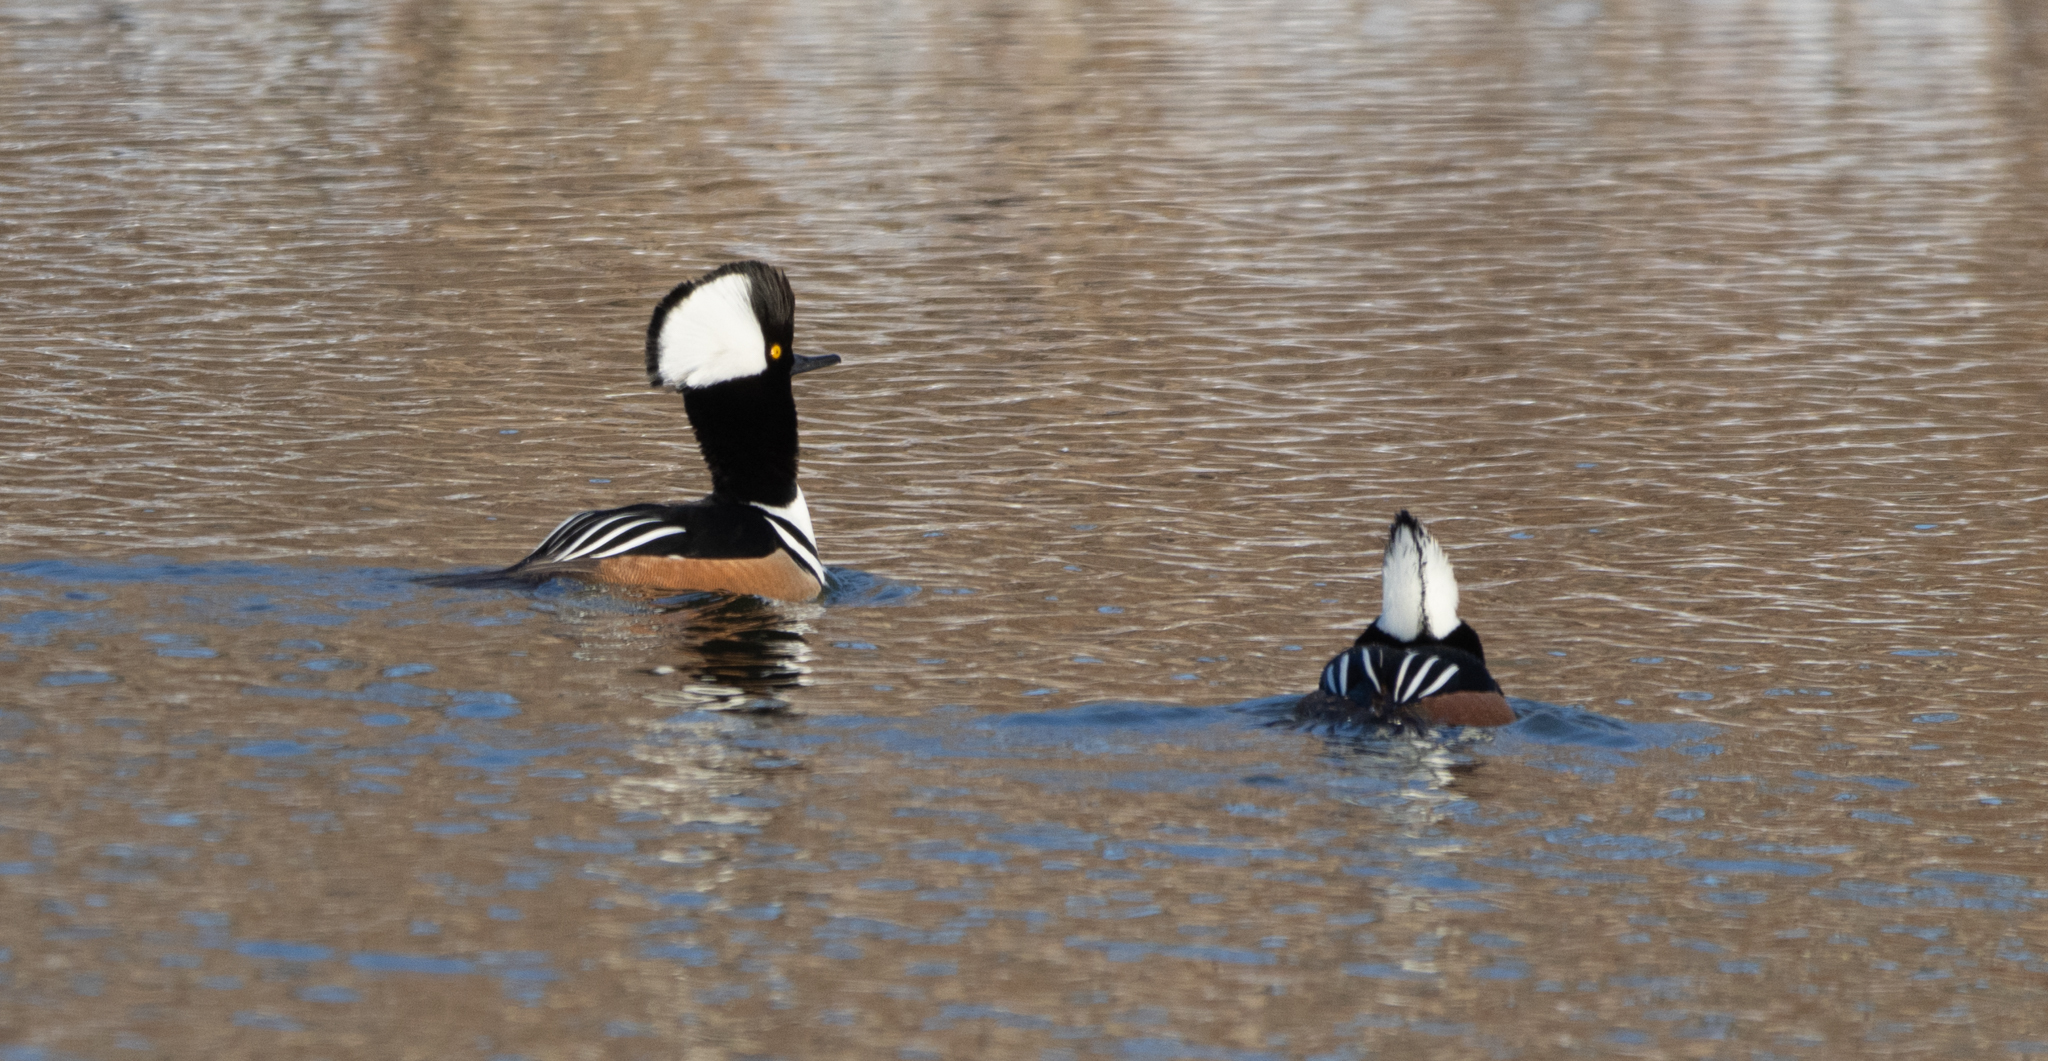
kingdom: Animalia
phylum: Chordata
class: Aves
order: Anseriformes
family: Anatidae
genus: Lophodytes
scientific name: Lophodytes cucullatus
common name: Hooded merganser
